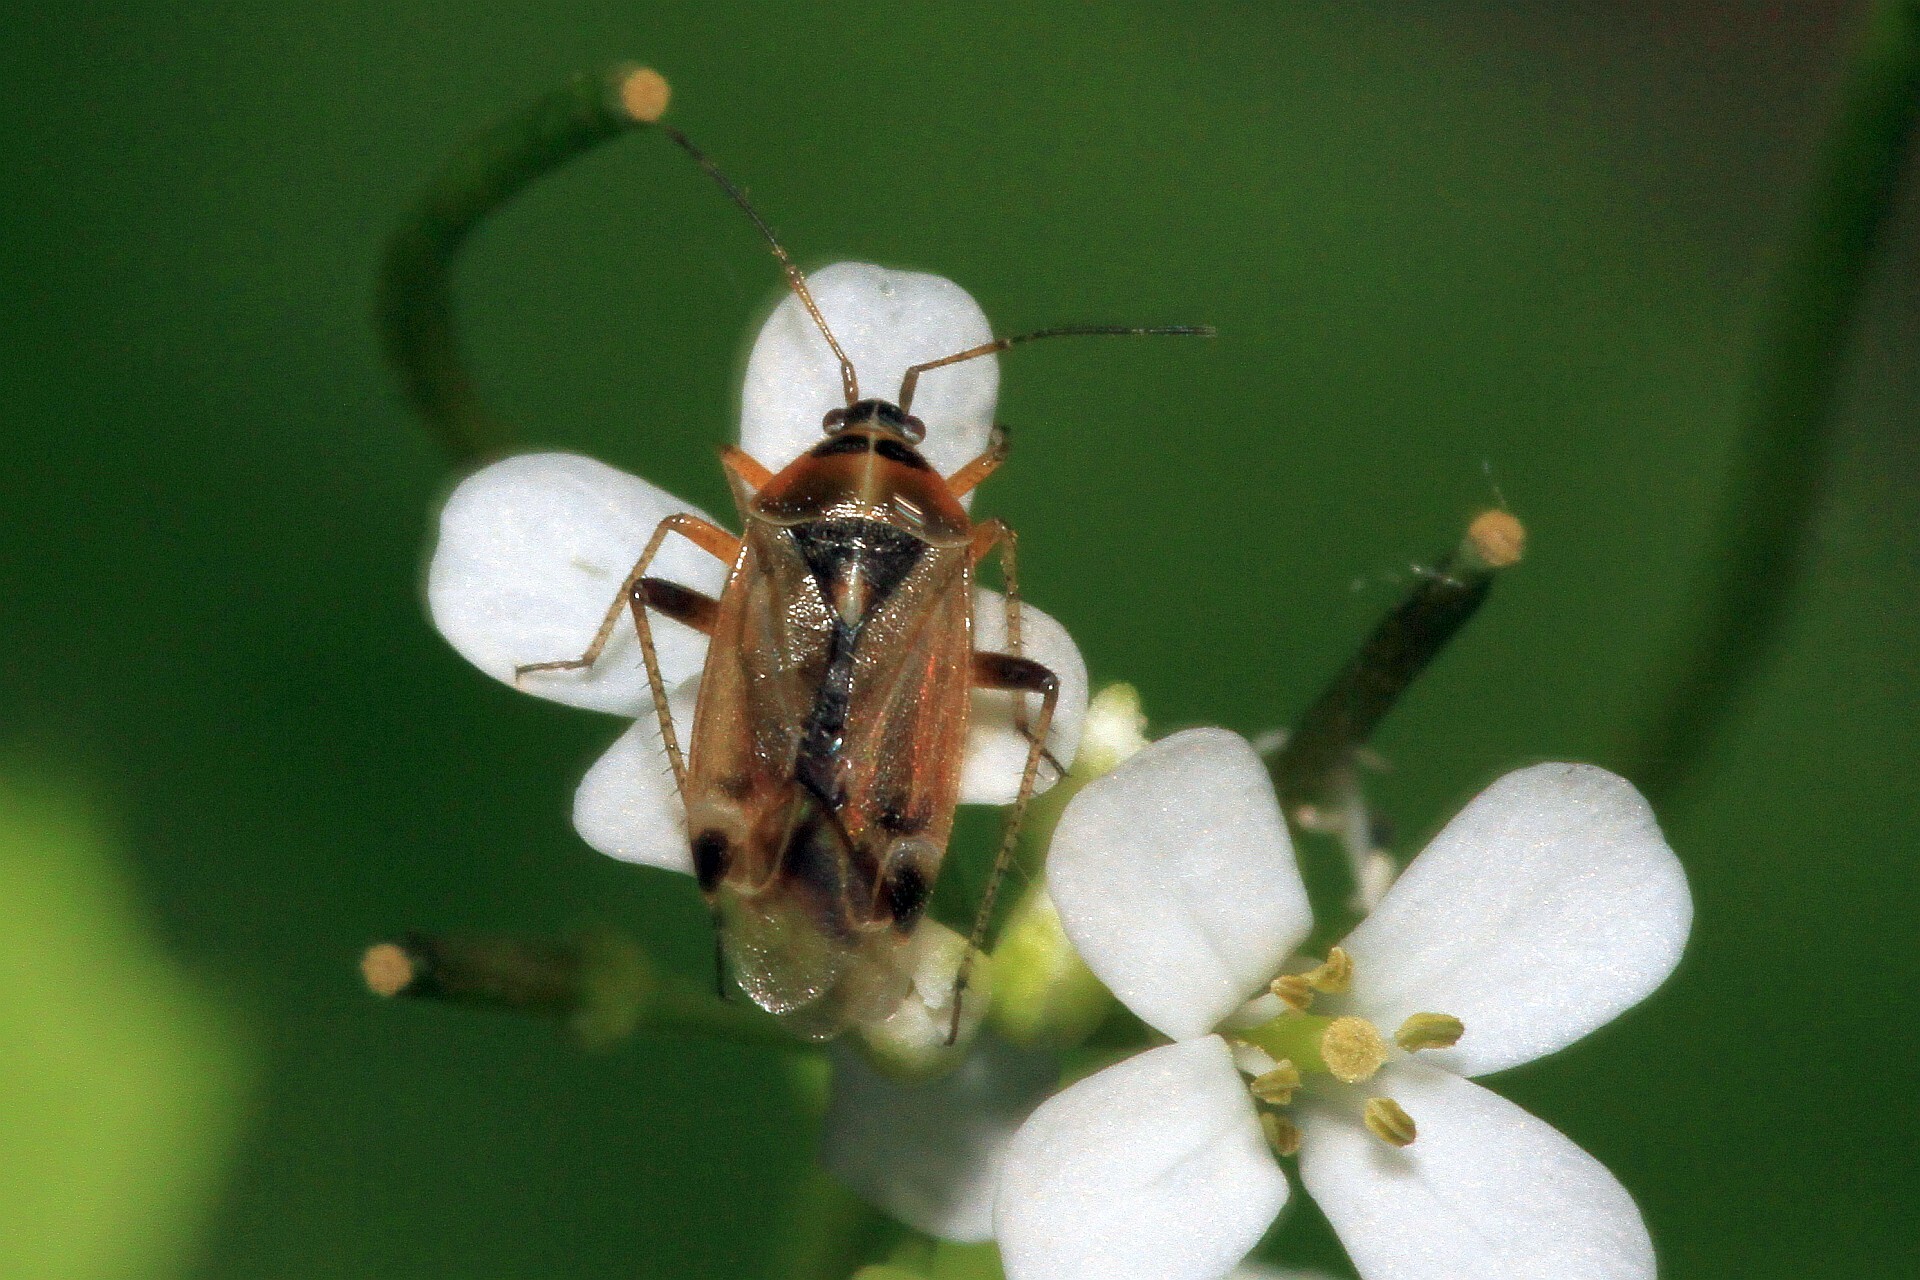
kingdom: Animalia
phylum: Arthropoda
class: Insecta
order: Hemiptera
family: Miridae
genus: Harpocera
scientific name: Harpocera thoracica
